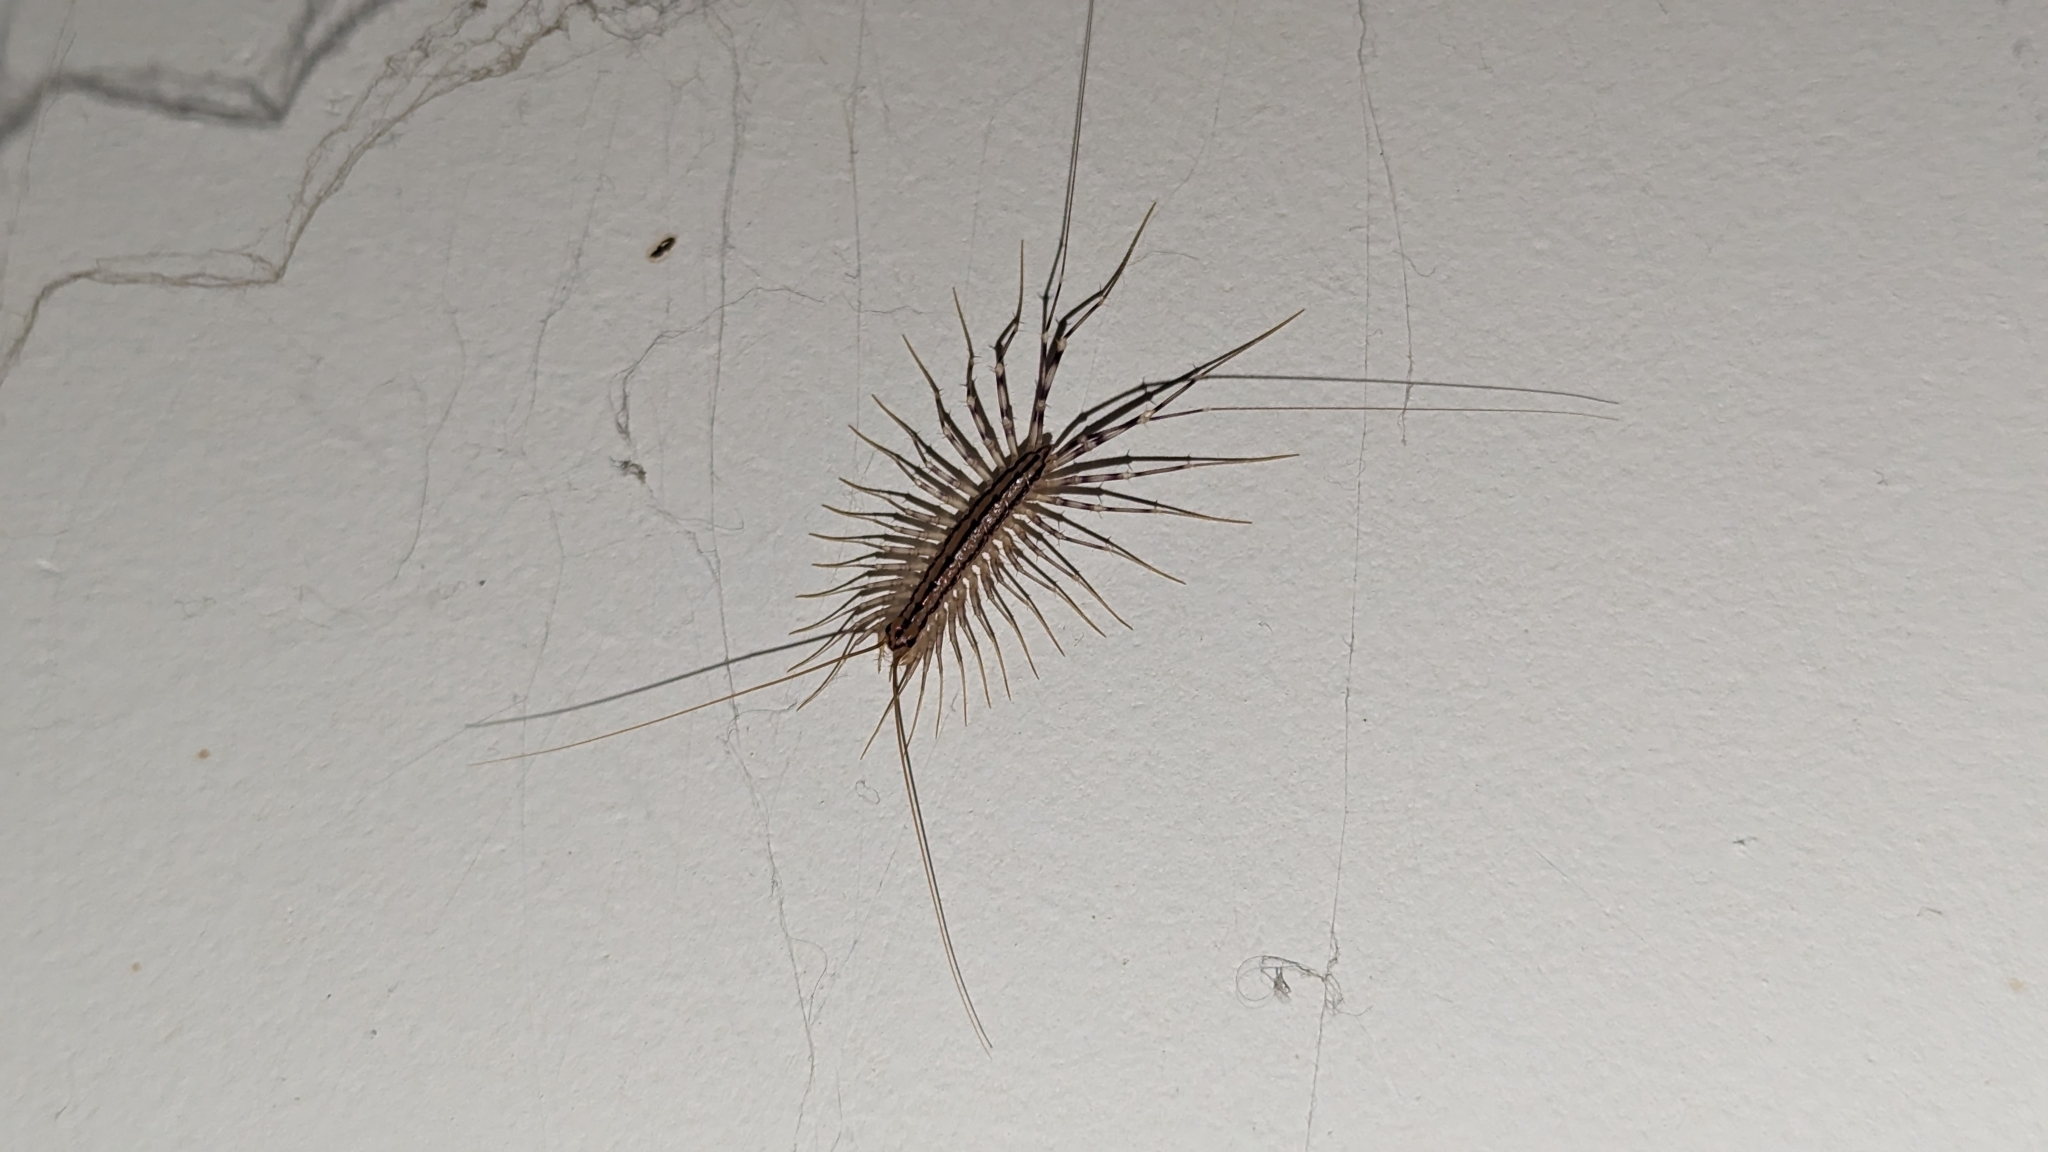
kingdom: Animalia
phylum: Arthropoda
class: Chilopoda
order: Scutigeromorpha
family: Scutigeridae
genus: Scutigera
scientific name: Scutigera coleoptrata
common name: House centipede
